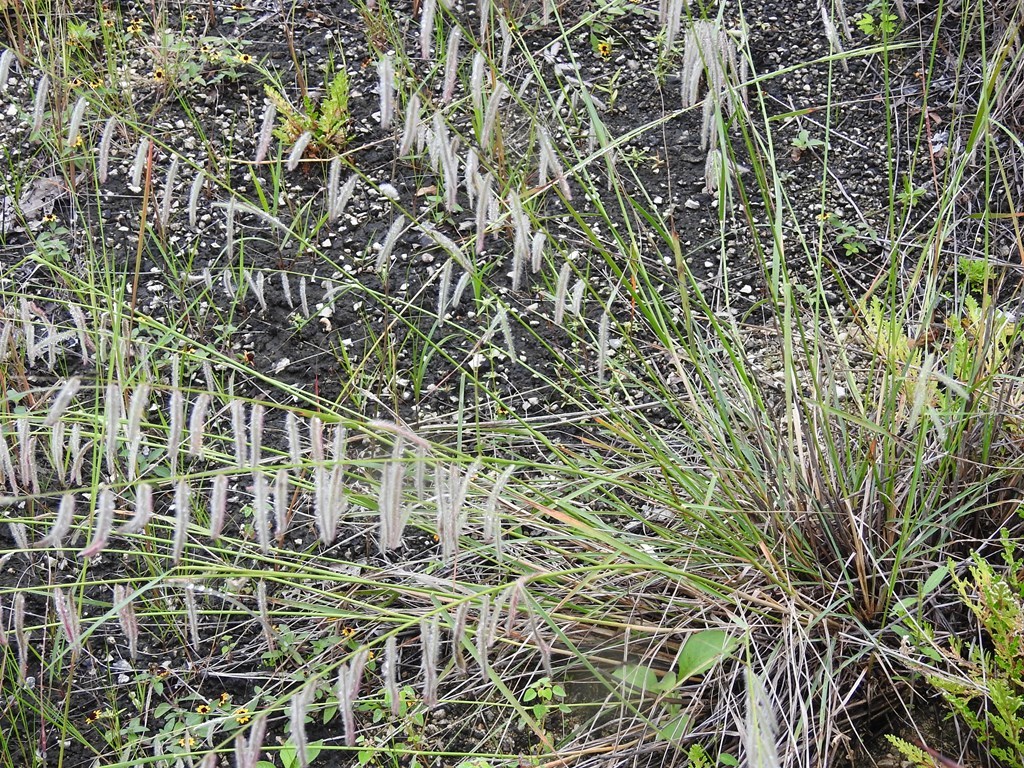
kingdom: Plantae
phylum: Tracheophyta
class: Liliopsida
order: Poales
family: Poaceae
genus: Bouteloua
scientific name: Bouteloua elata
